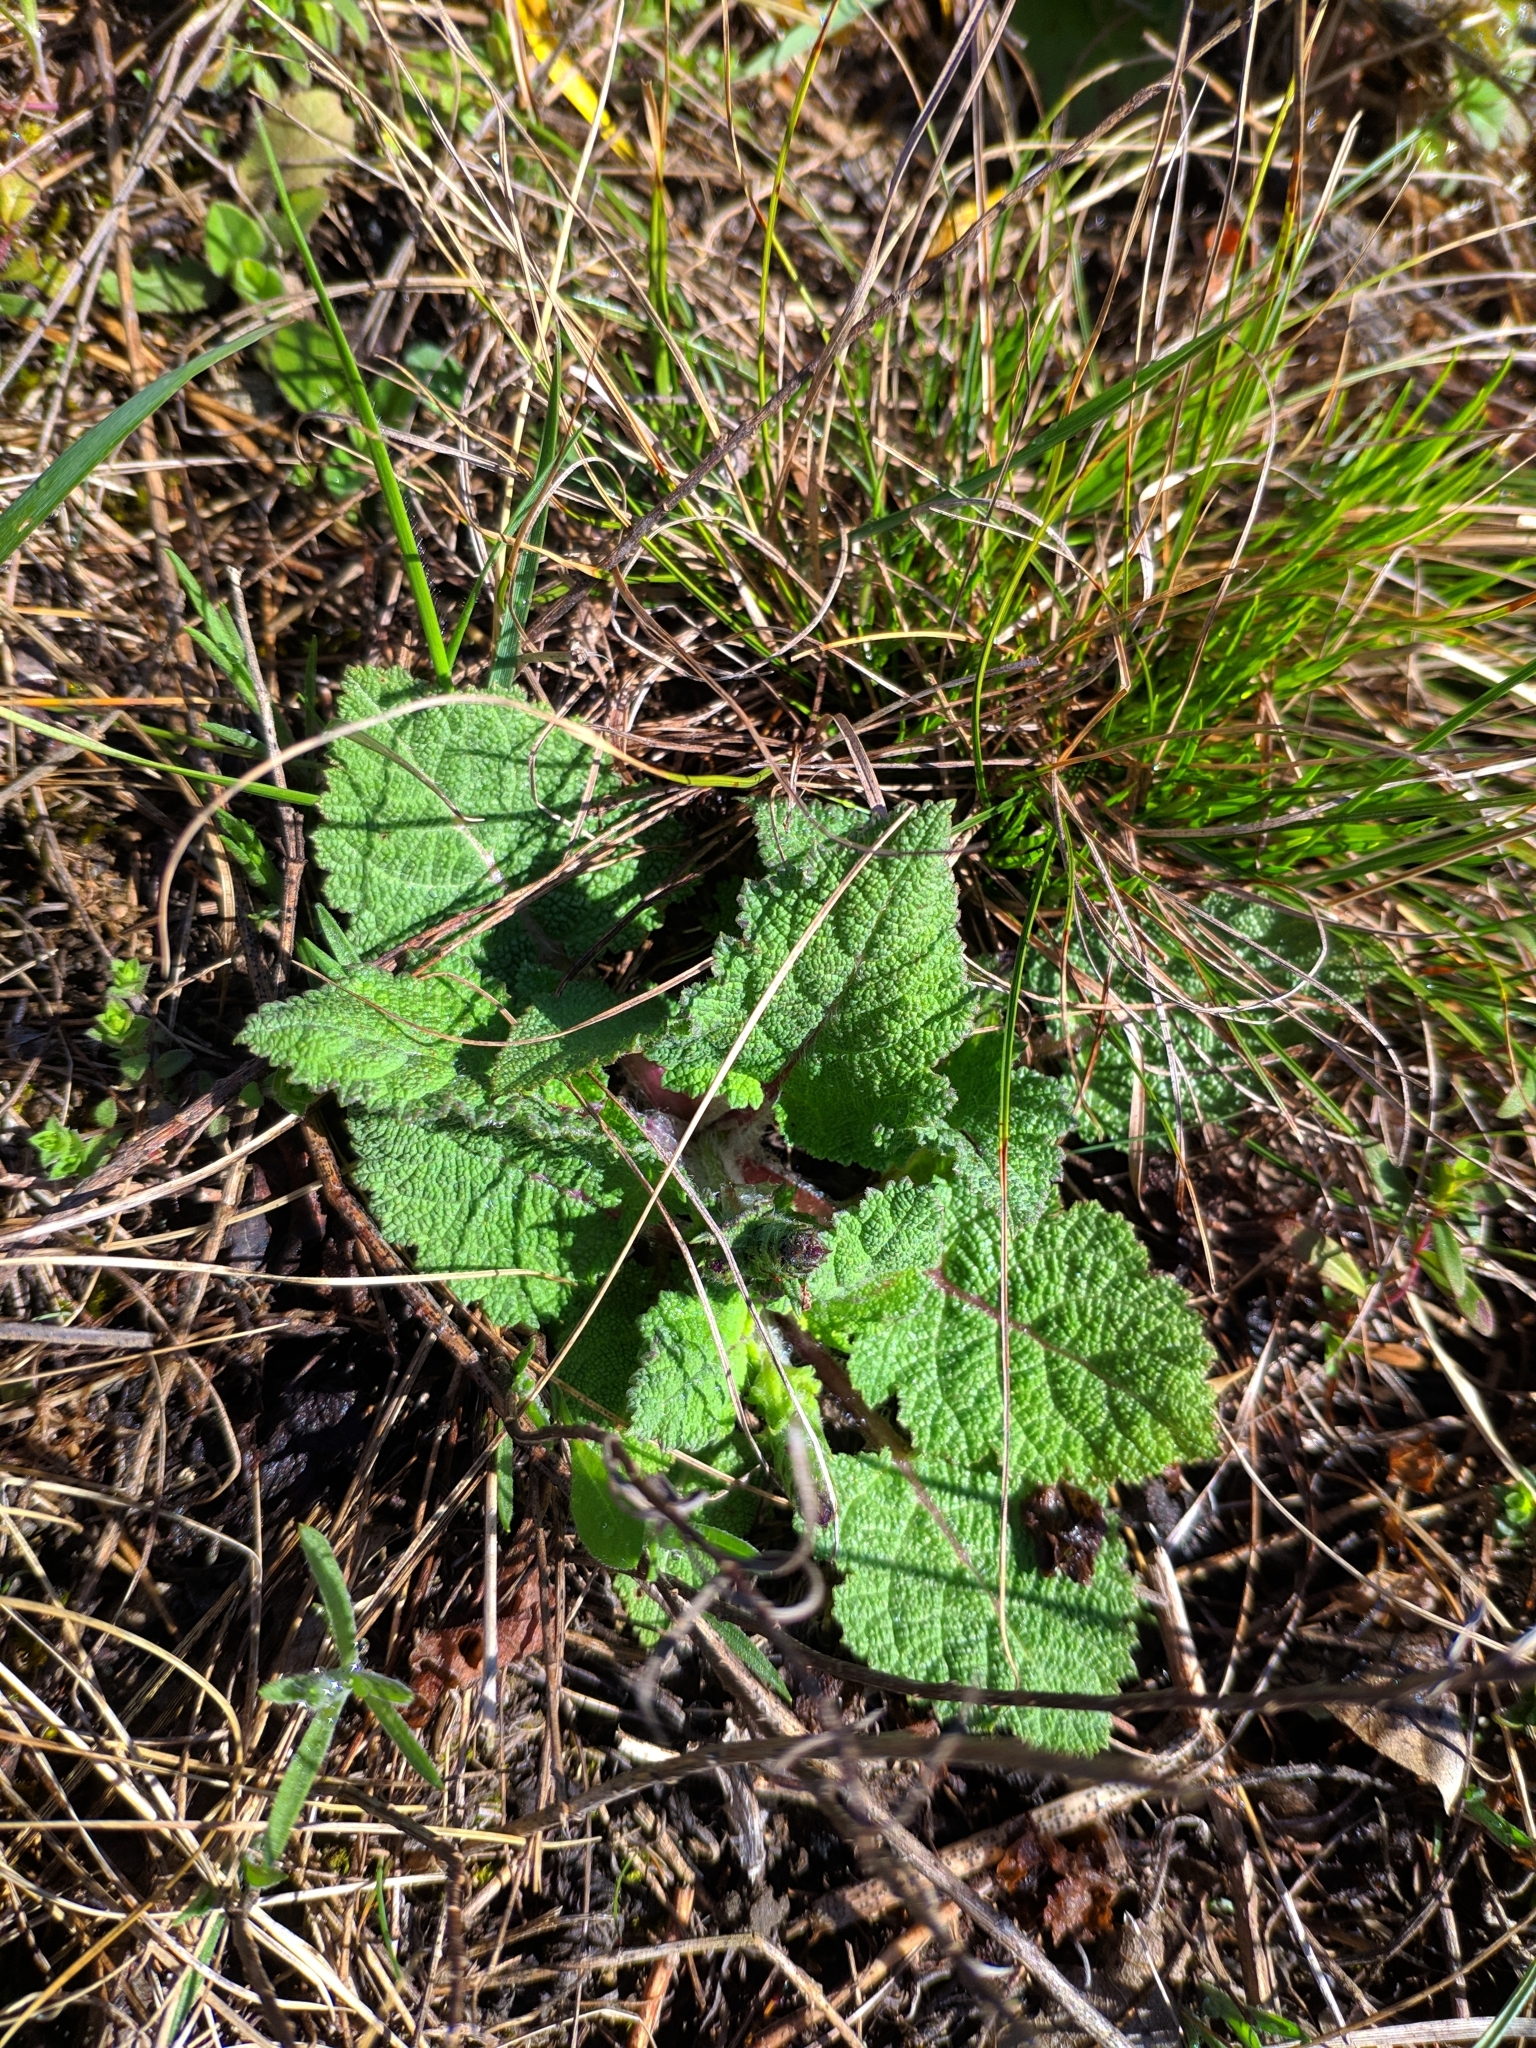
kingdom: Plantae
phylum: Tracheophyta
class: Magnoliopsida
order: Lamiales
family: Lamiaceae
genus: Salvia
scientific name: Salvia pratensis
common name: Meadow sage
